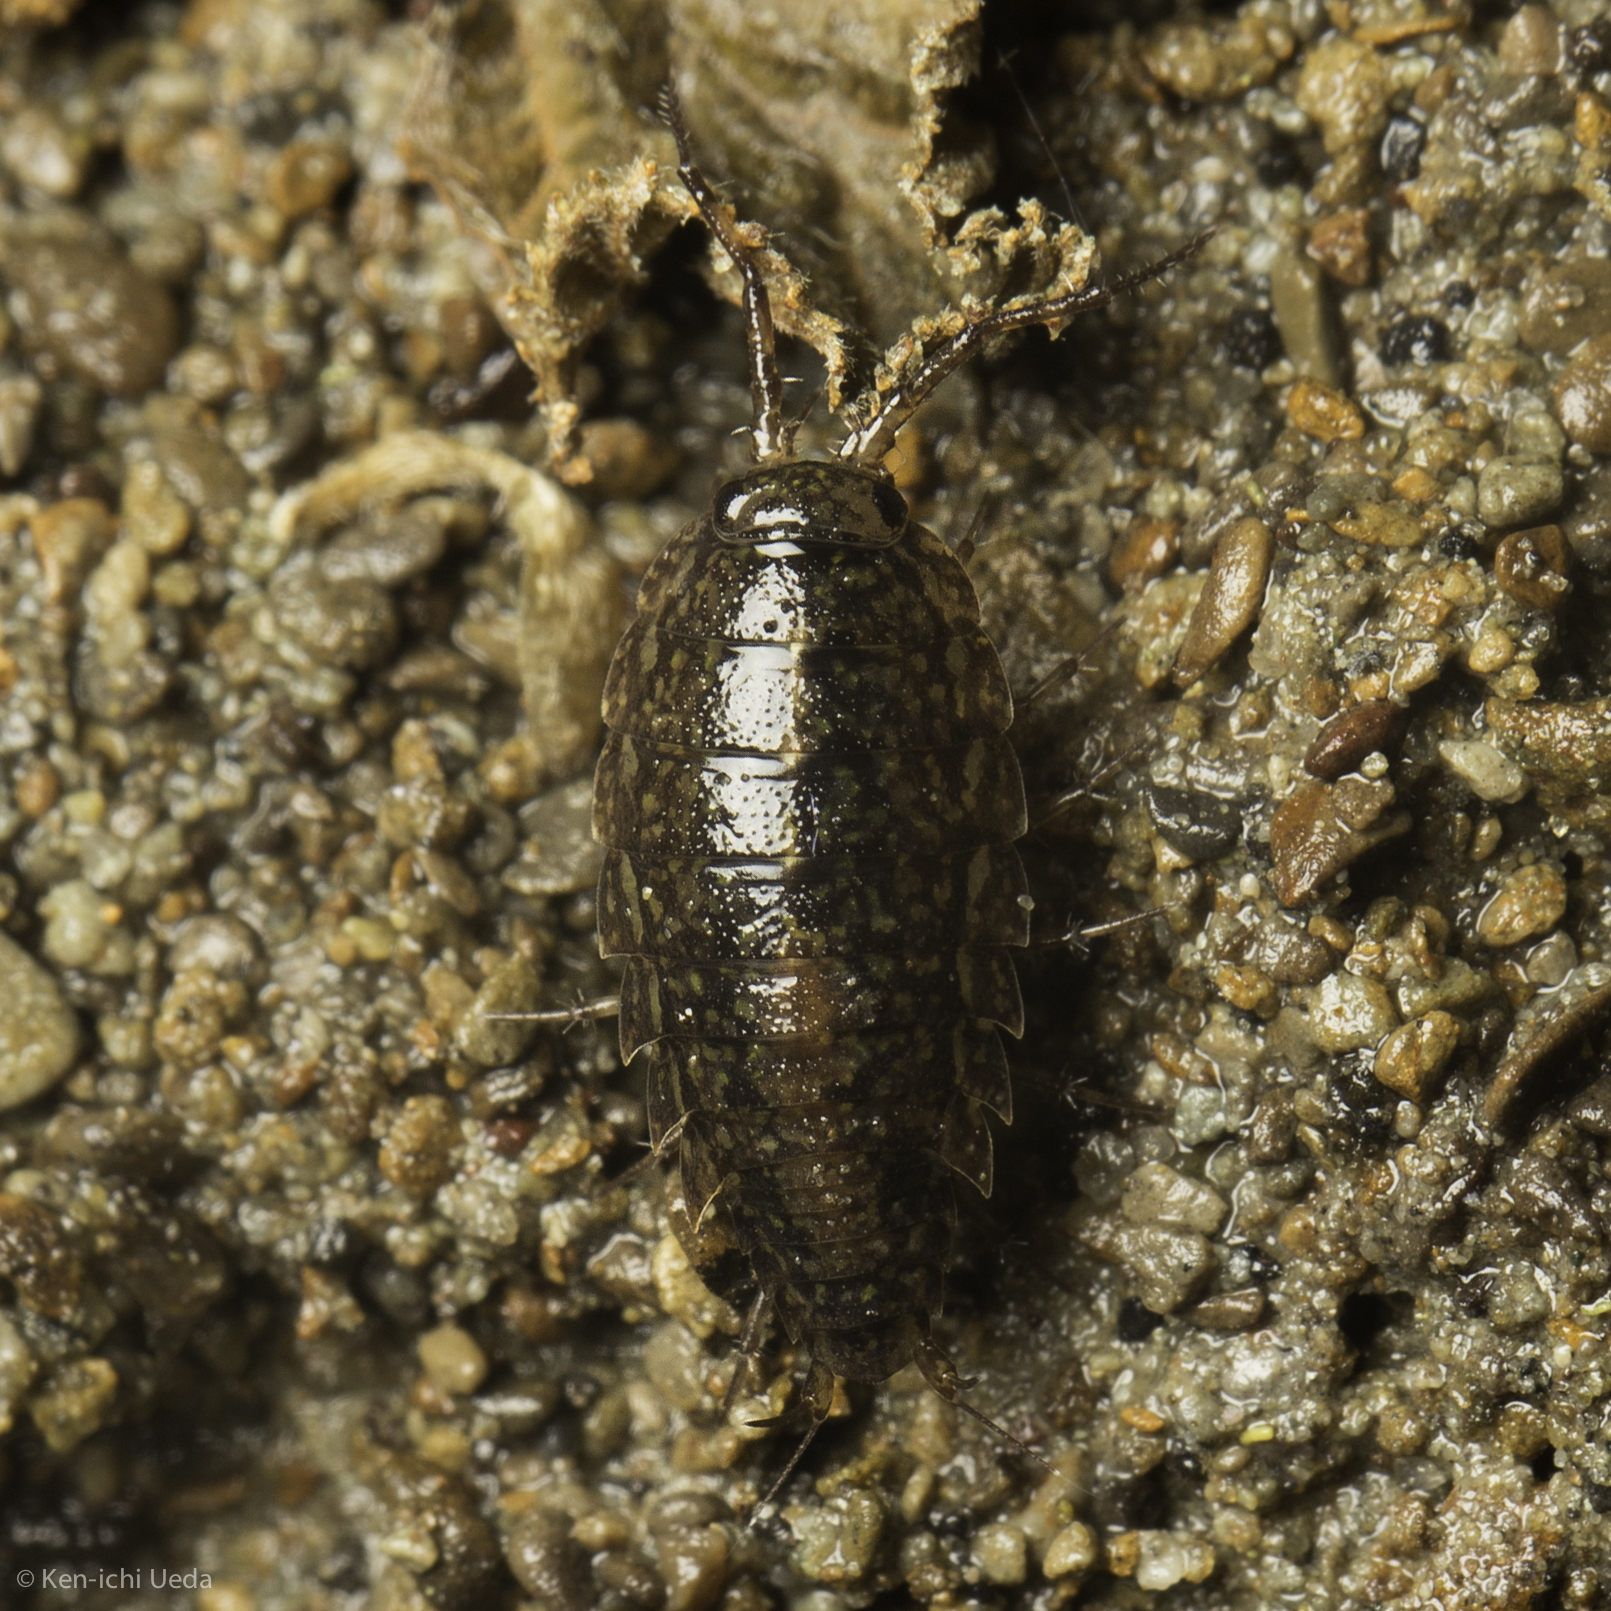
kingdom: Animalia
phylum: Arthropoda
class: Malacostraca
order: Isopoda
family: Ligiidae
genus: Ligidium
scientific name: Ligidium latum
